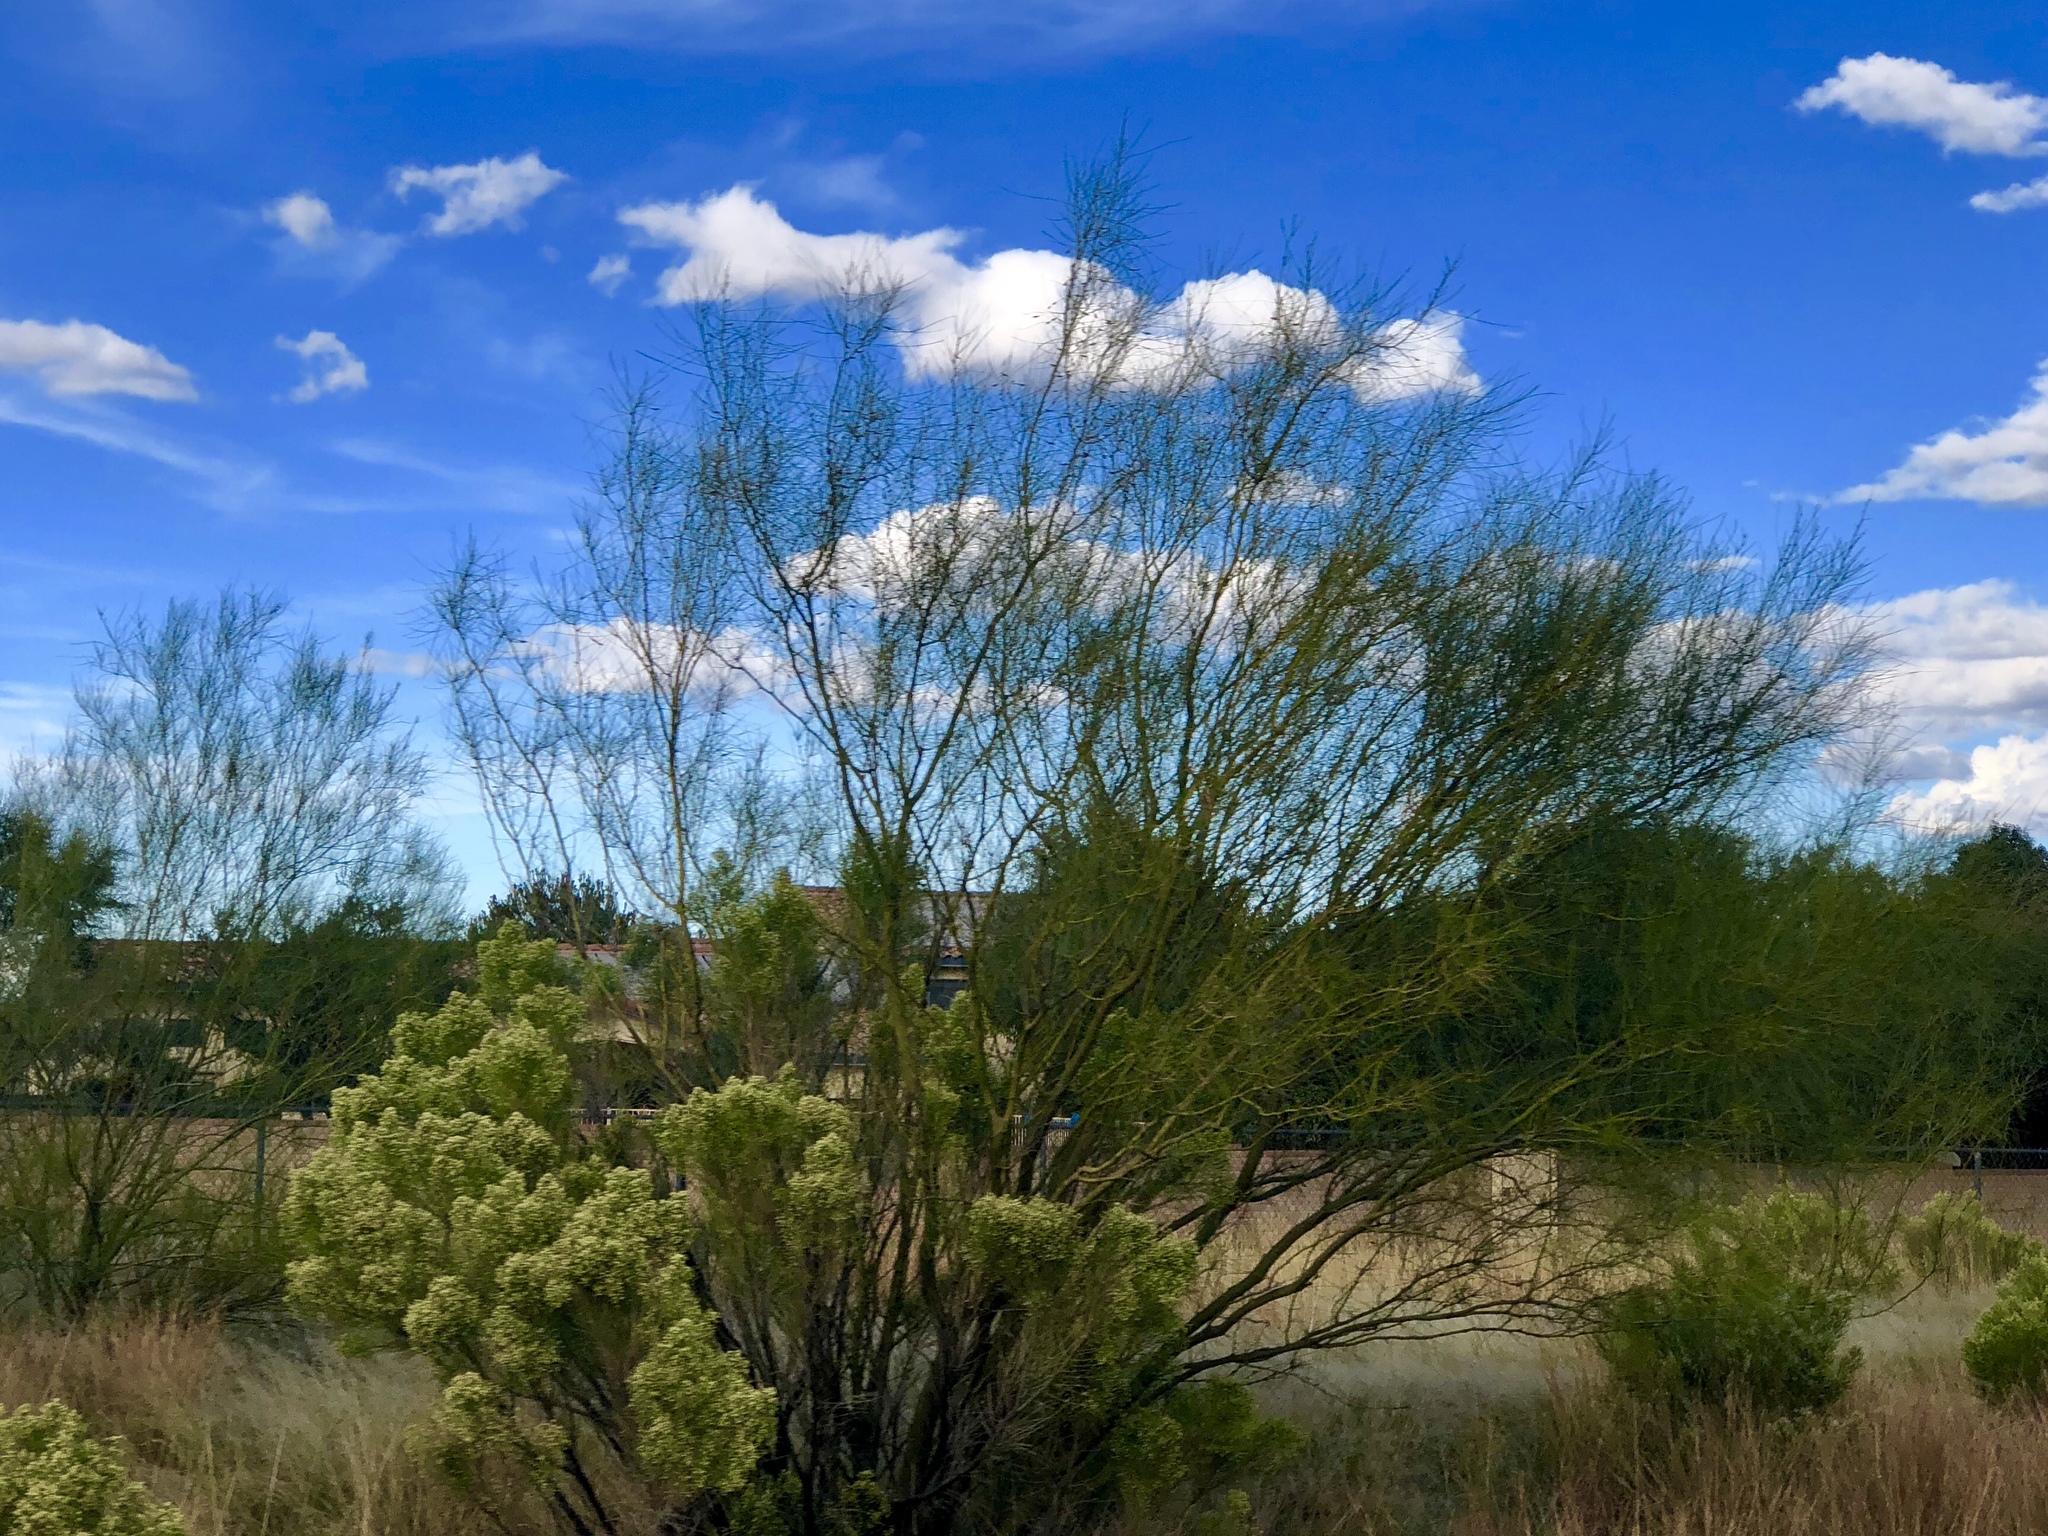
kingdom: Plantae
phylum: Tracheophyta
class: Magnoliopsida
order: Fabales
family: Fabaceae
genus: Parkinsonia
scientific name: Parkinsonia aculeata
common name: Jerusalem thorn
